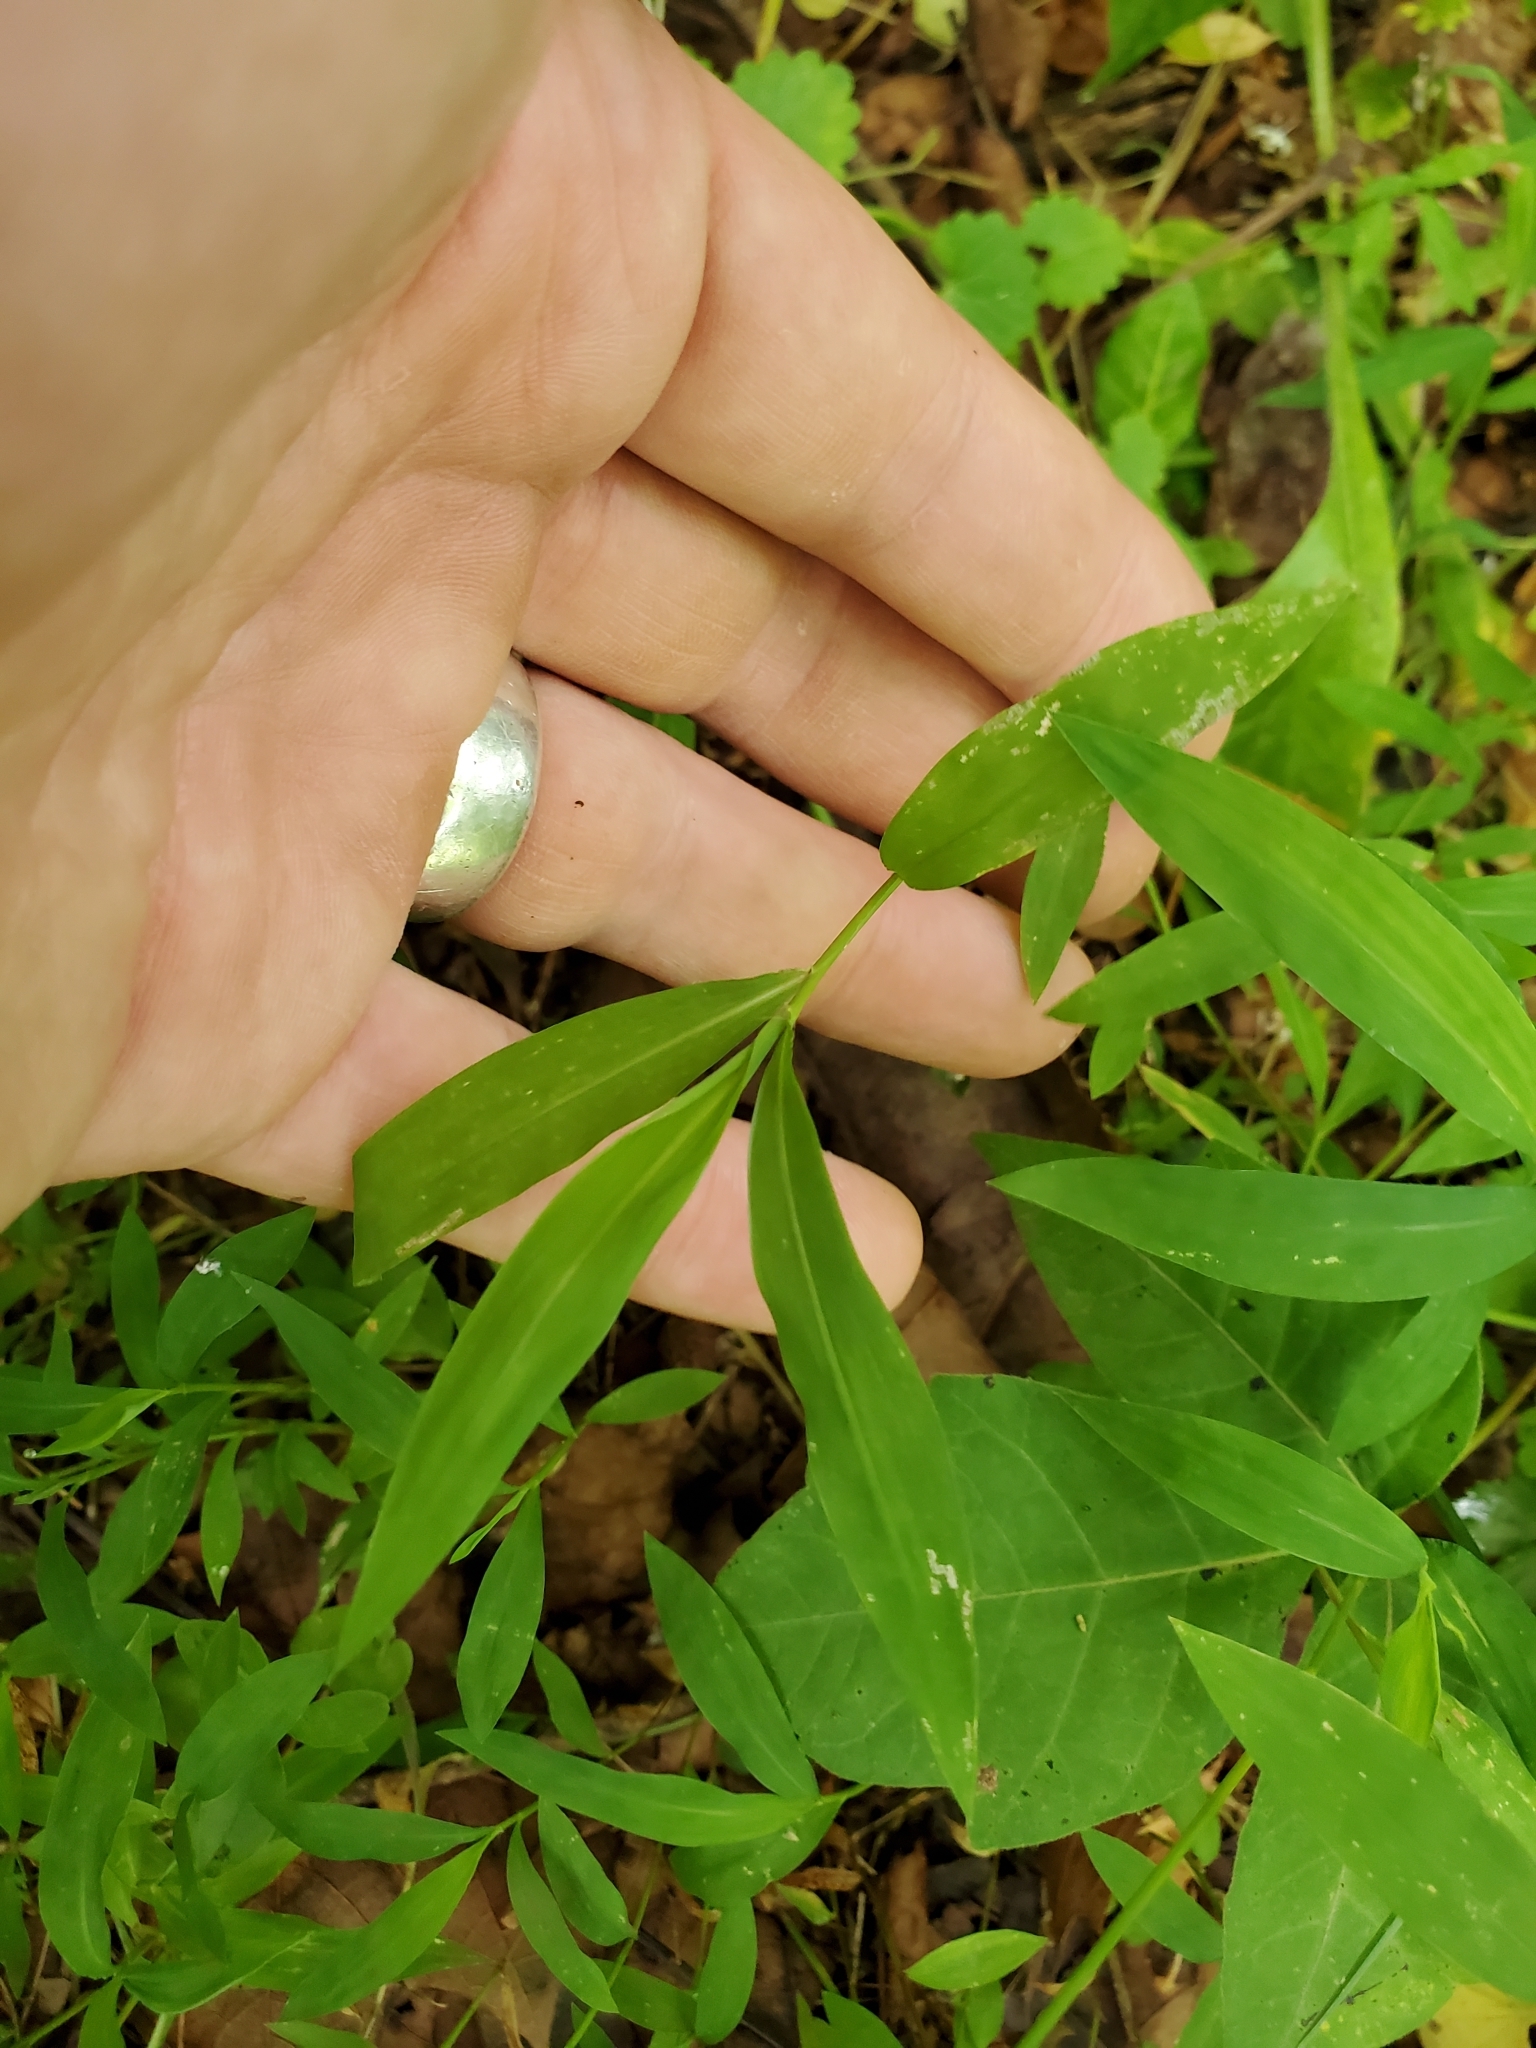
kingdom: Plantae
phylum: Tracheophyta
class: Liliopsida
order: Poales
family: Poaceae
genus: Microstegium
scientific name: Microstegium vimineum
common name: Japanese stiltgrass
